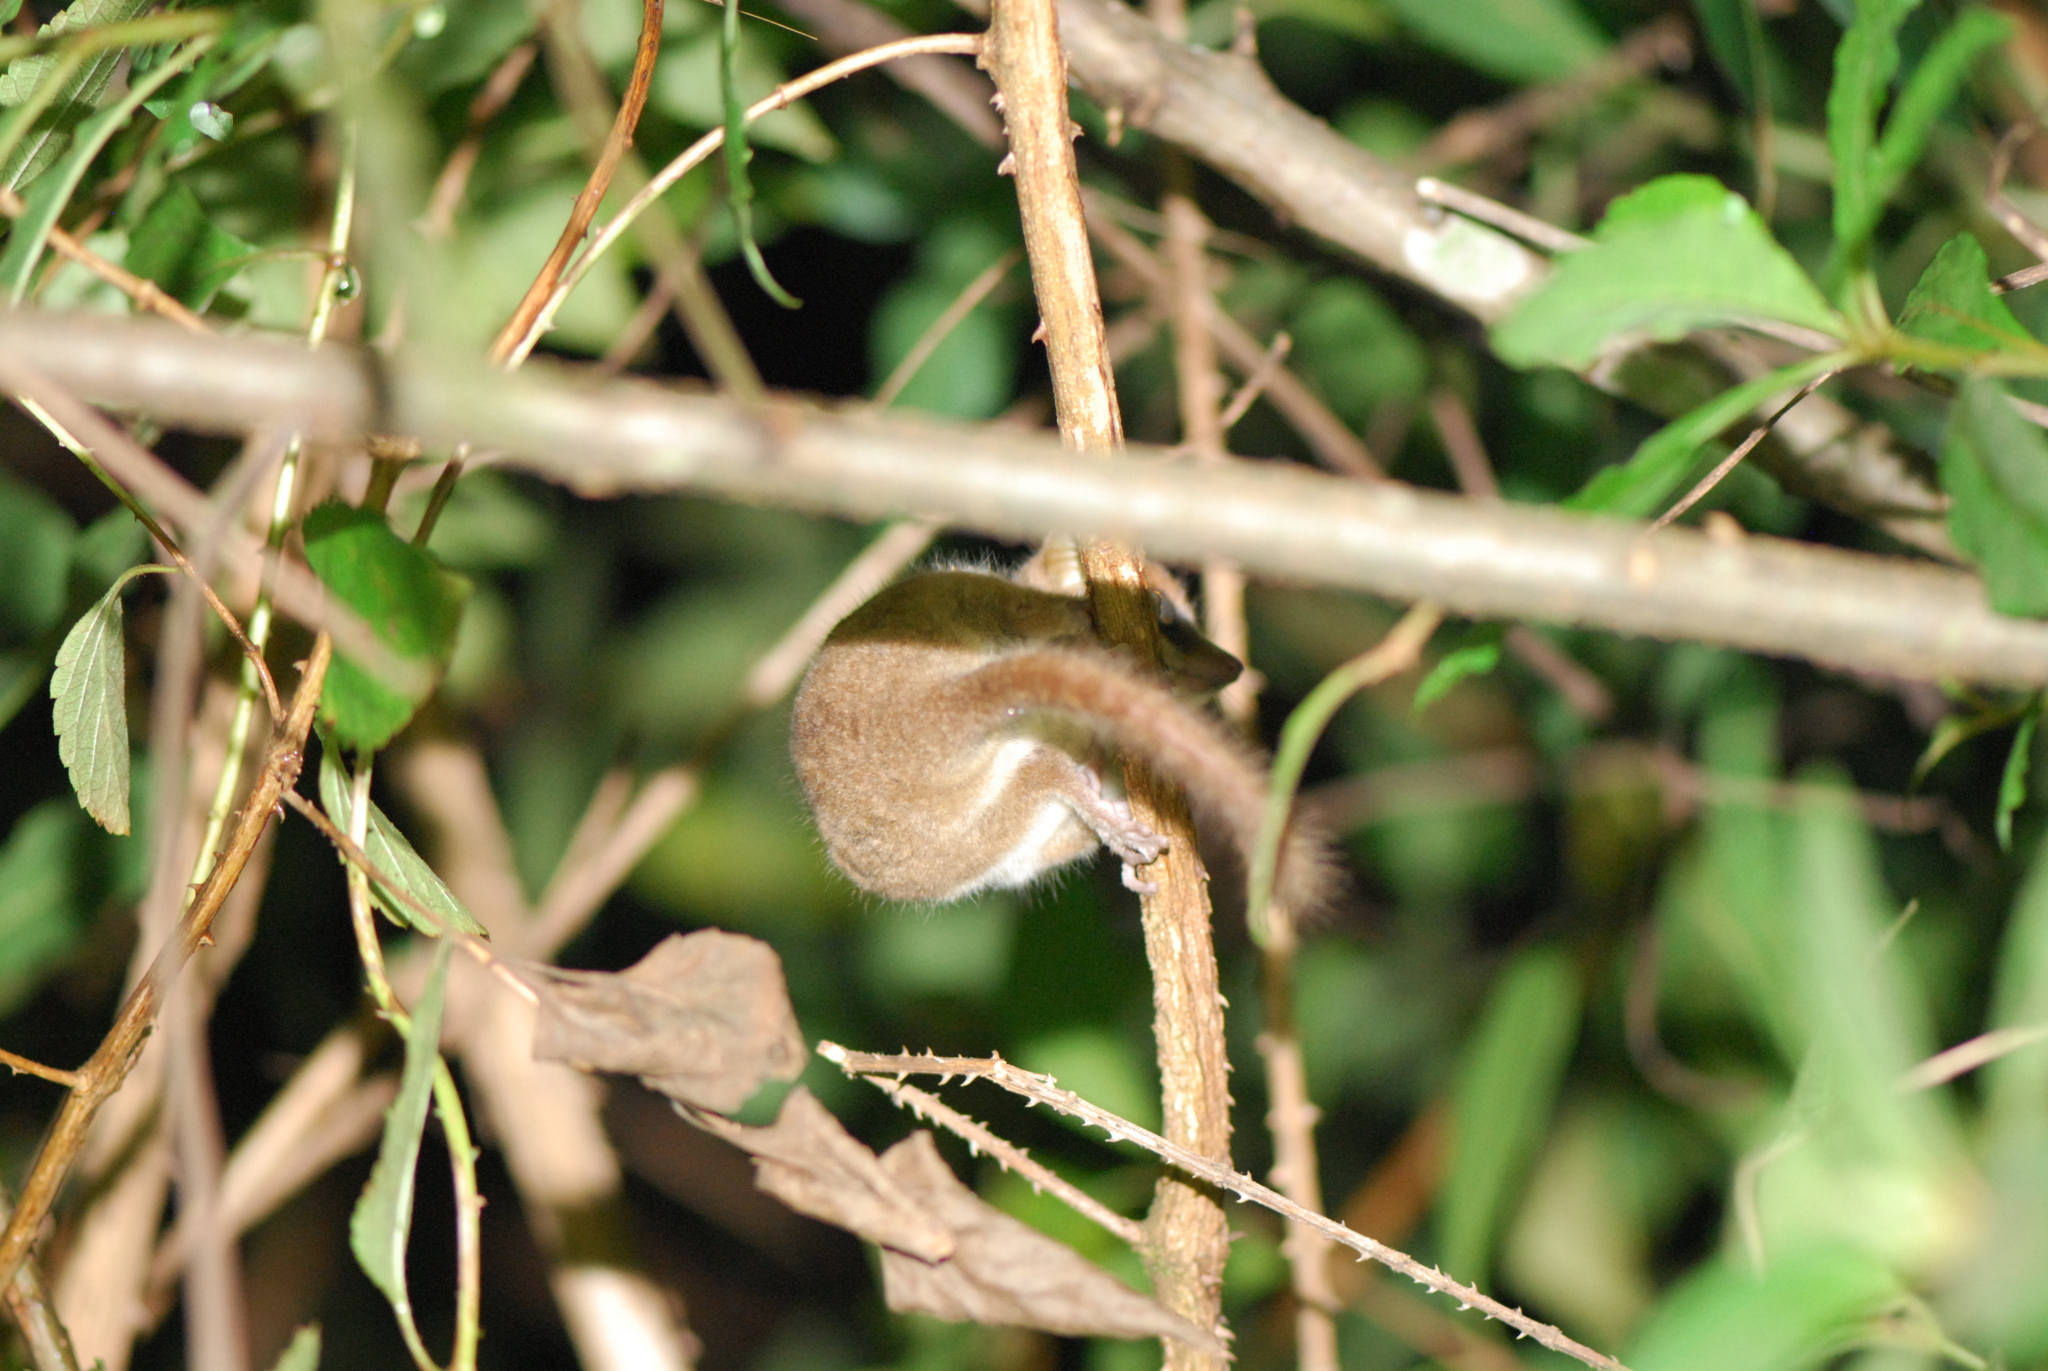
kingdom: Animalia
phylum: Chordata
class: Mammalia
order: Primates
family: Cheirogaleidae
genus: Microcebus
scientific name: Microcebus lehilahytsara
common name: Goodman's mouse lemur
